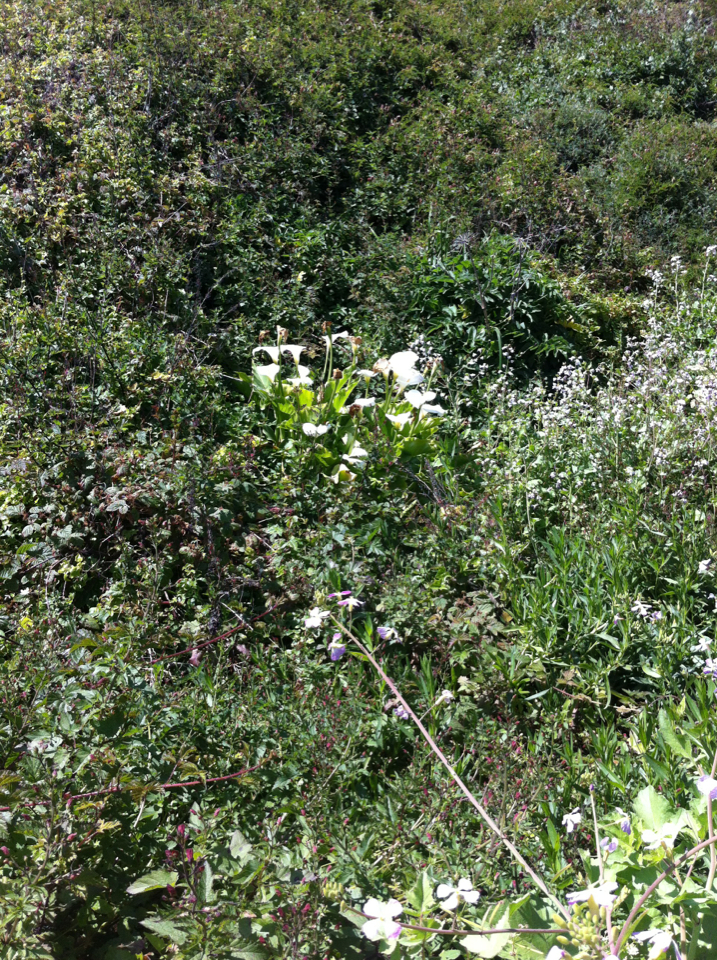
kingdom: Plantae
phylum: Tracheophyta
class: Liliopsida
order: Alismatales
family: Araceae
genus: Zantedeschia
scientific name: Zantedeschia aethiopica
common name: Altar-lily
